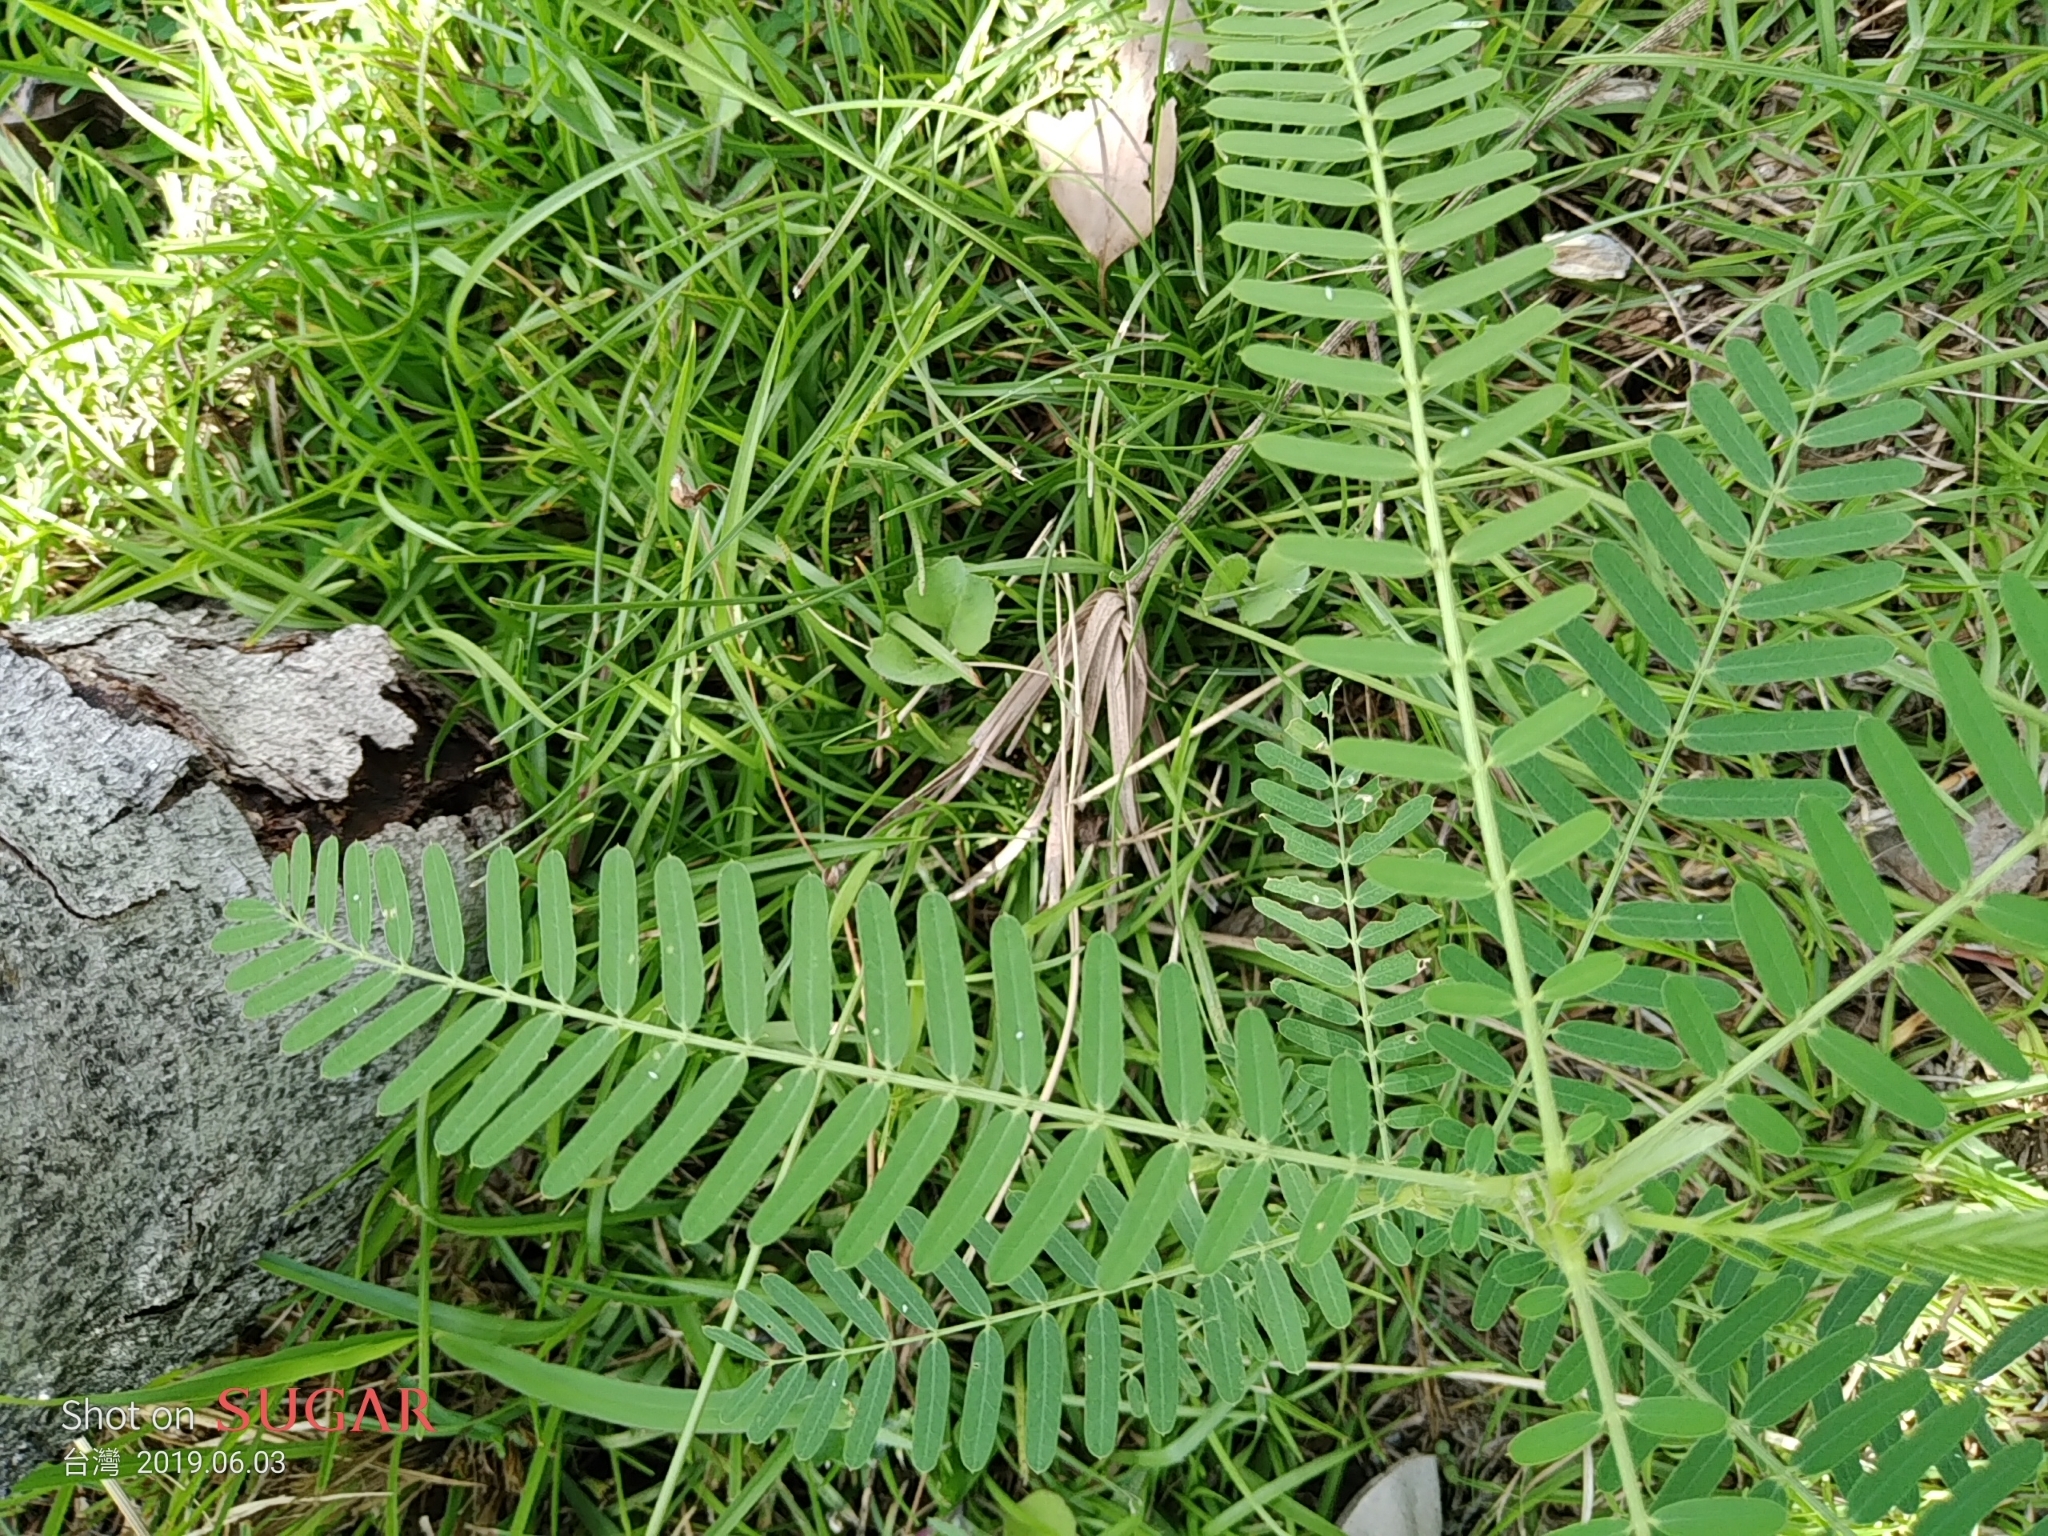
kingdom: Plantae
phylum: Tracheophyta
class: Magnoliopsida
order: Fabales
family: Fabaceae
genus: Sesbania
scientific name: Sesbania cannabina
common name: Canicha
